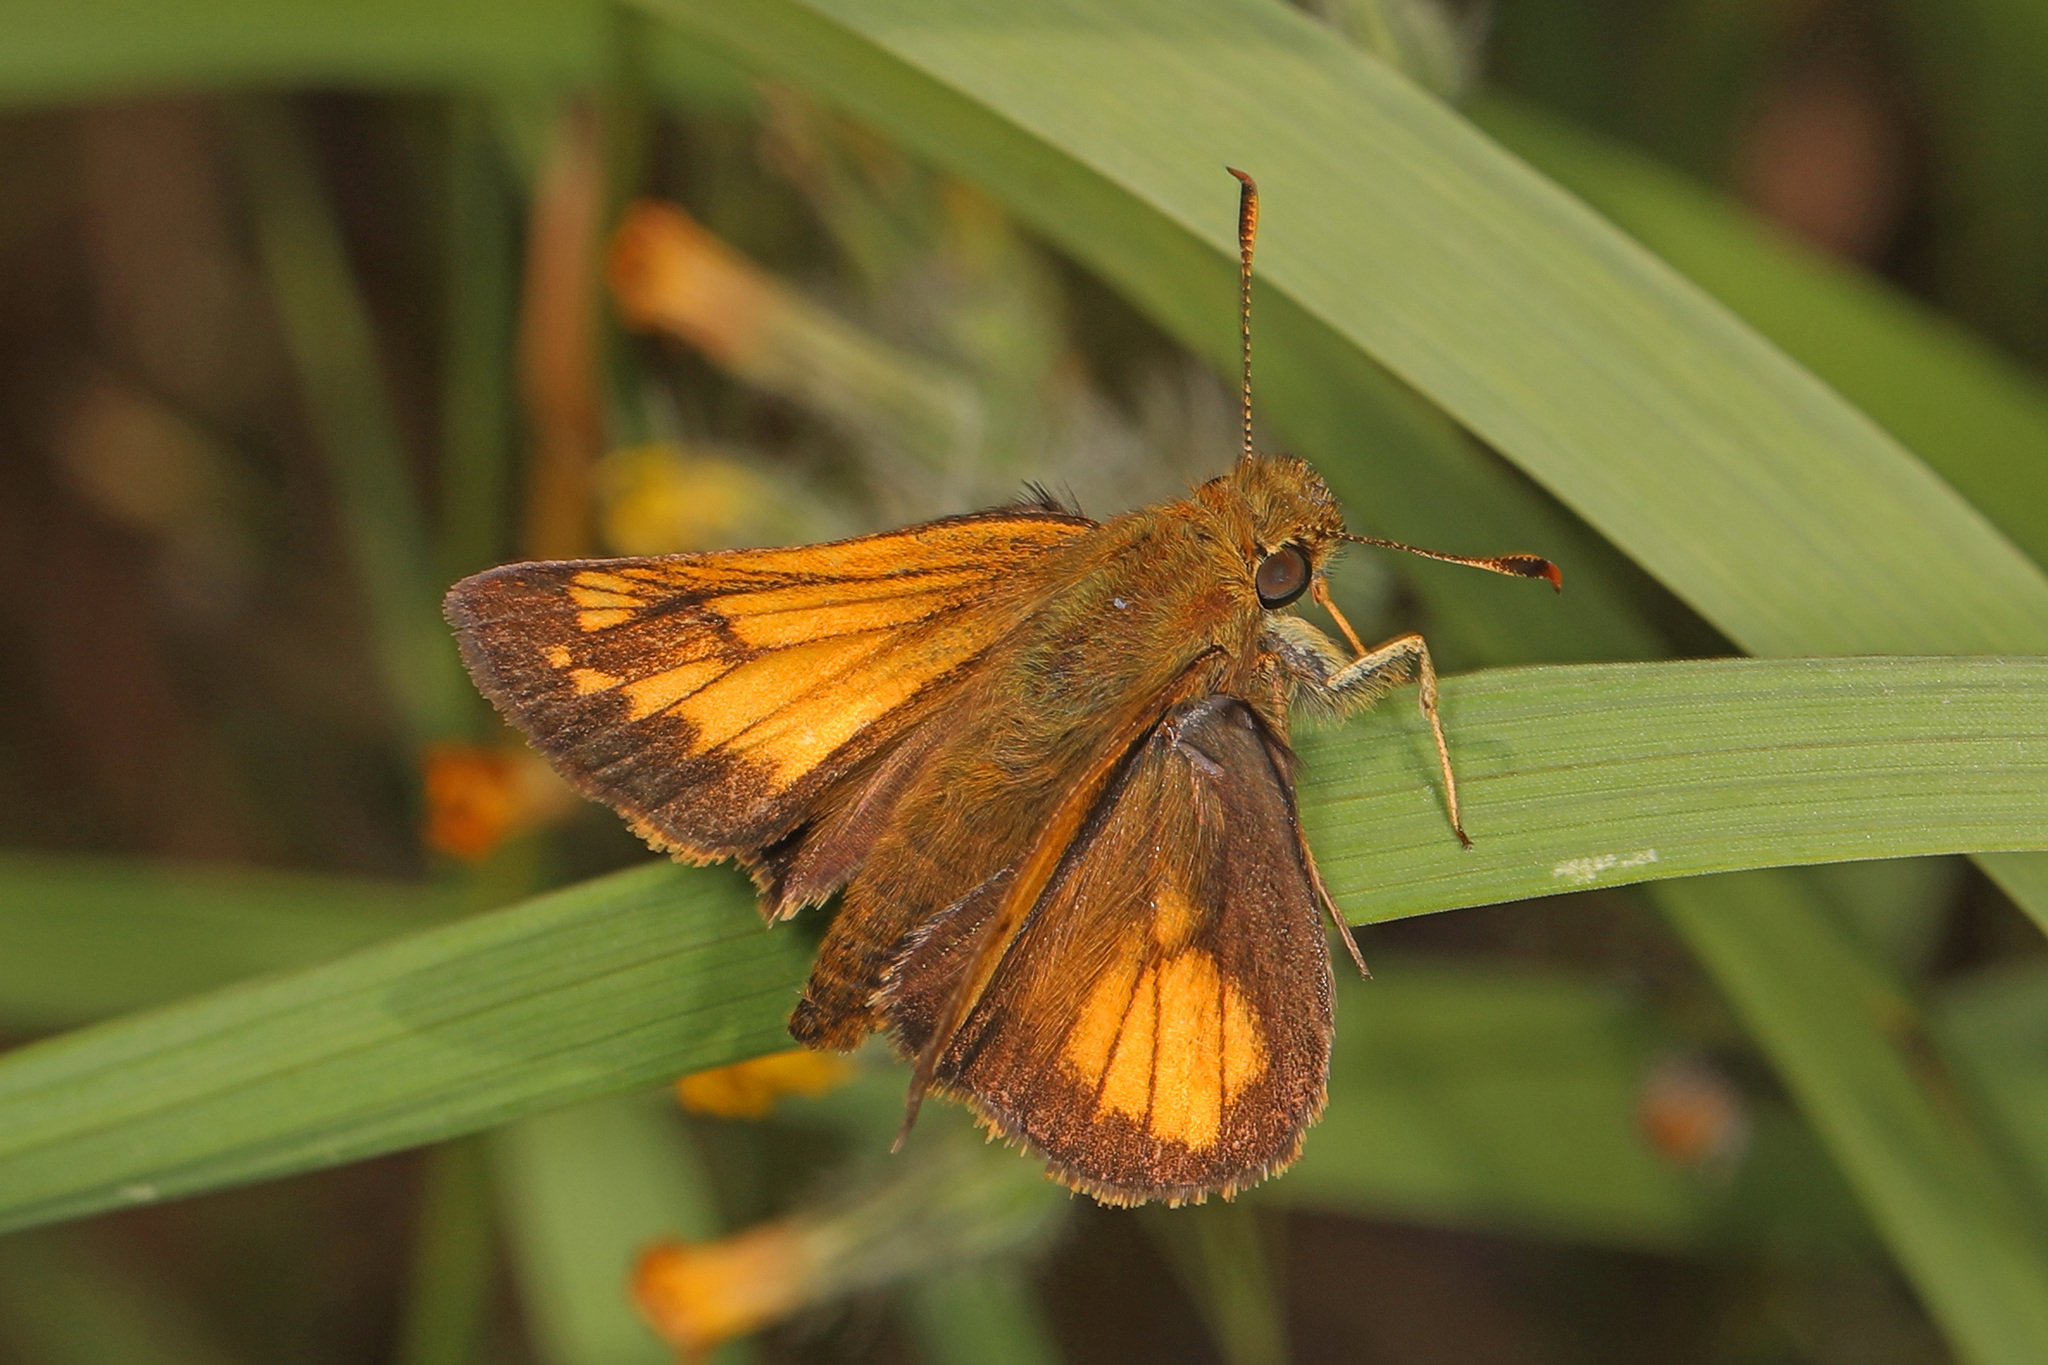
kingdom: Animalia
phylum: Arthropoda
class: Insecta
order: Lepidoptera
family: Hesperiidae
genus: Lon
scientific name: Lon hobomok
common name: Hobomok skipper
